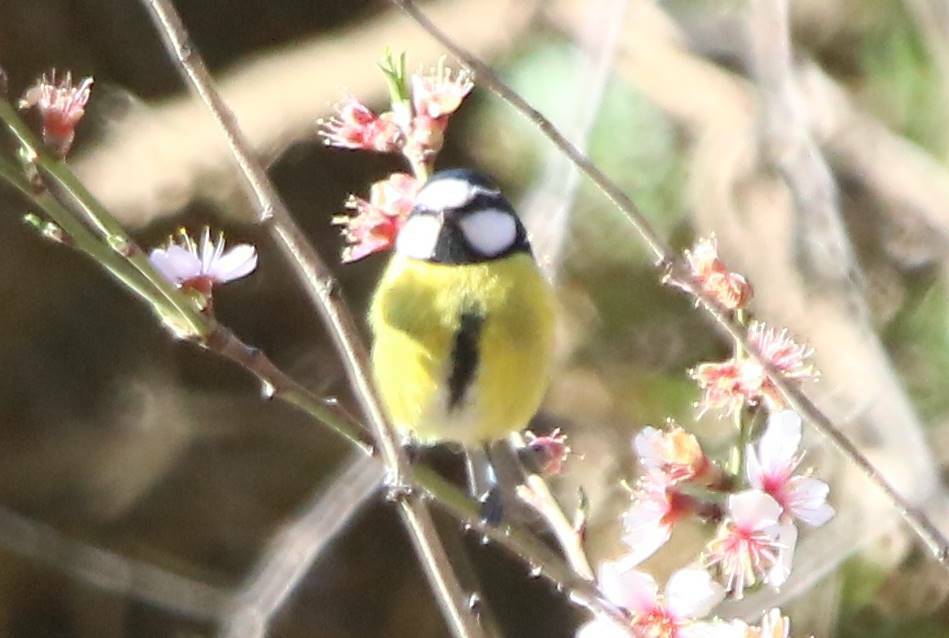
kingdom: Animalia
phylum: Chordata
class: Aves
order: Passeriformes
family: Paridae
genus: Cyanistes
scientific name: Cyanistes teneriffae
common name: African blue tit
